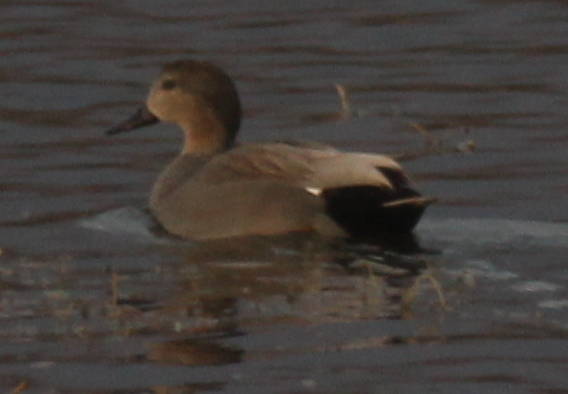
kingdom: Animalia
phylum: Chordata
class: Aves
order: Anseriformes
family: Anatidae
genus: Mareca
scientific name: Mareca strepera
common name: Gadwall
